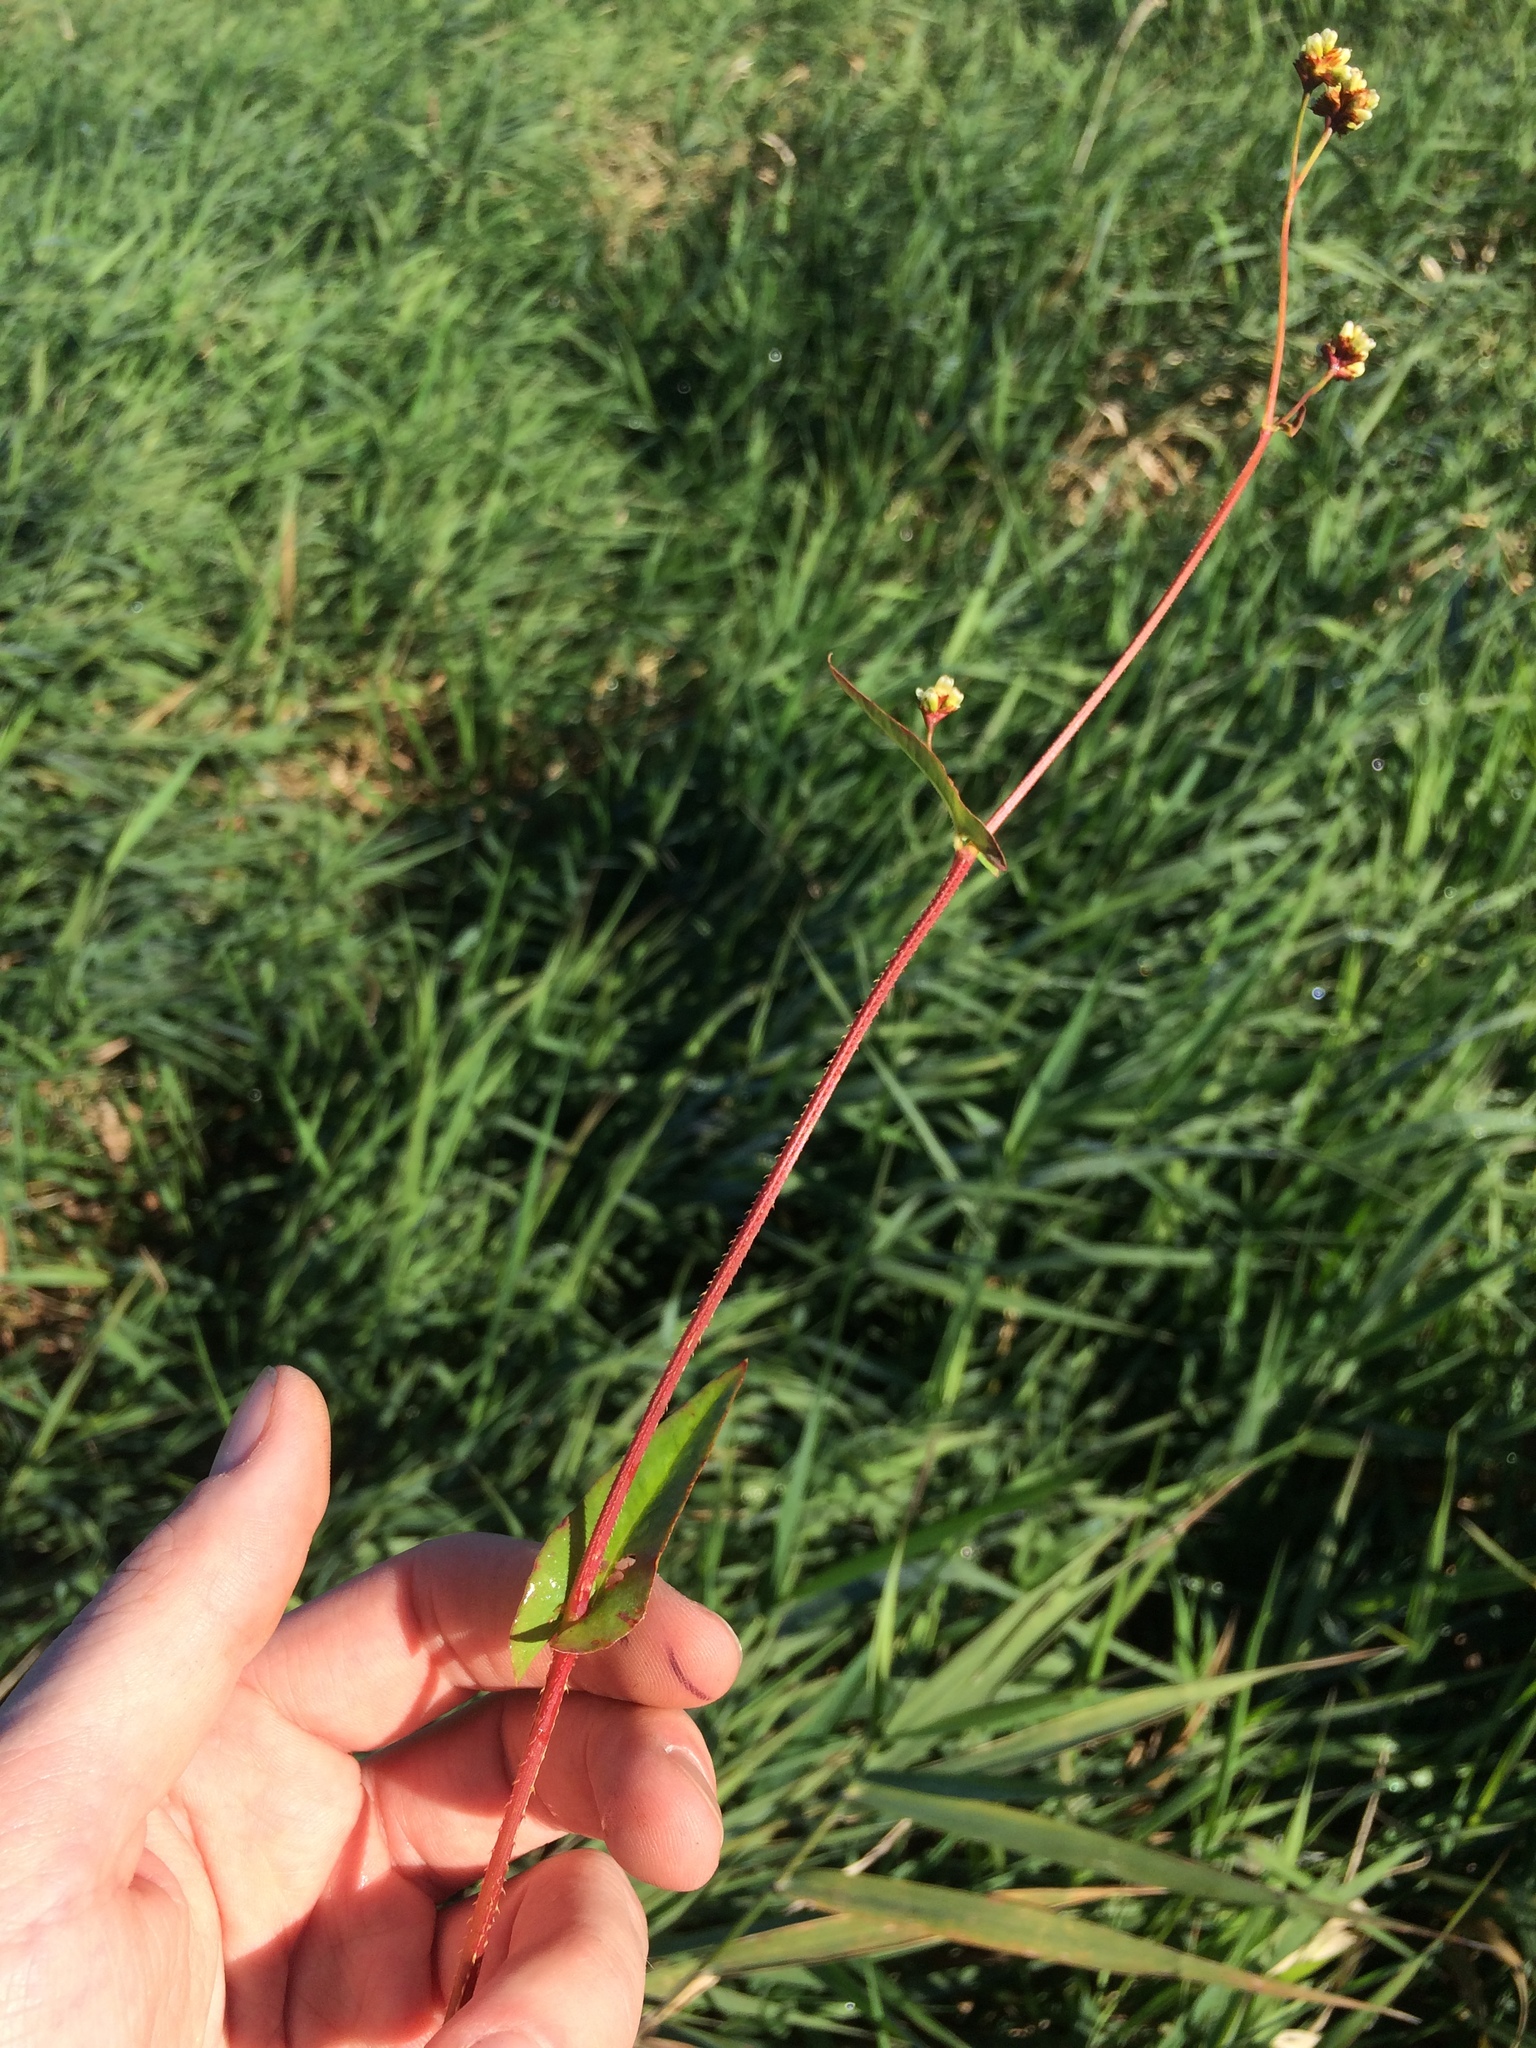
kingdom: Plantae
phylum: Tracheophyta
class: Magnoliopsida
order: Caryophyllales
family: Polygonaceae
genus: Persicaria
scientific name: Persicaria sagittata
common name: American tearthumb
